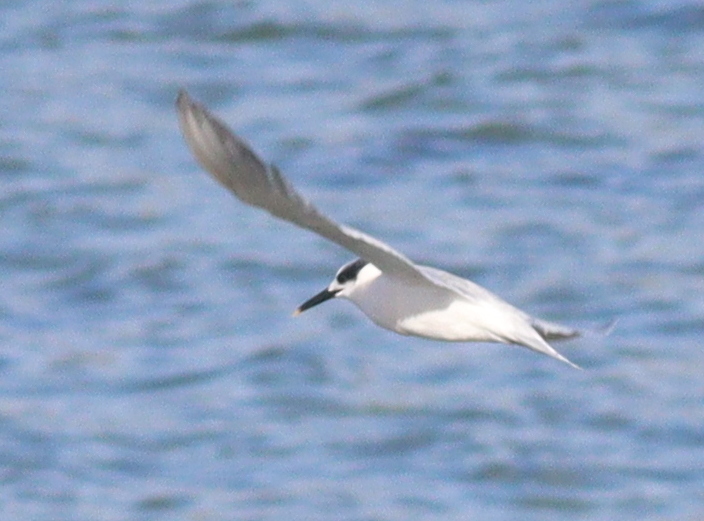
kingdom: Animalia
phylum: Chordata
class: Aves
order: Charadriiformes
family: Laridae
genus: Thalasseus
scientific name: Thalasseus sandvicensis
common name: Sandwich tern
